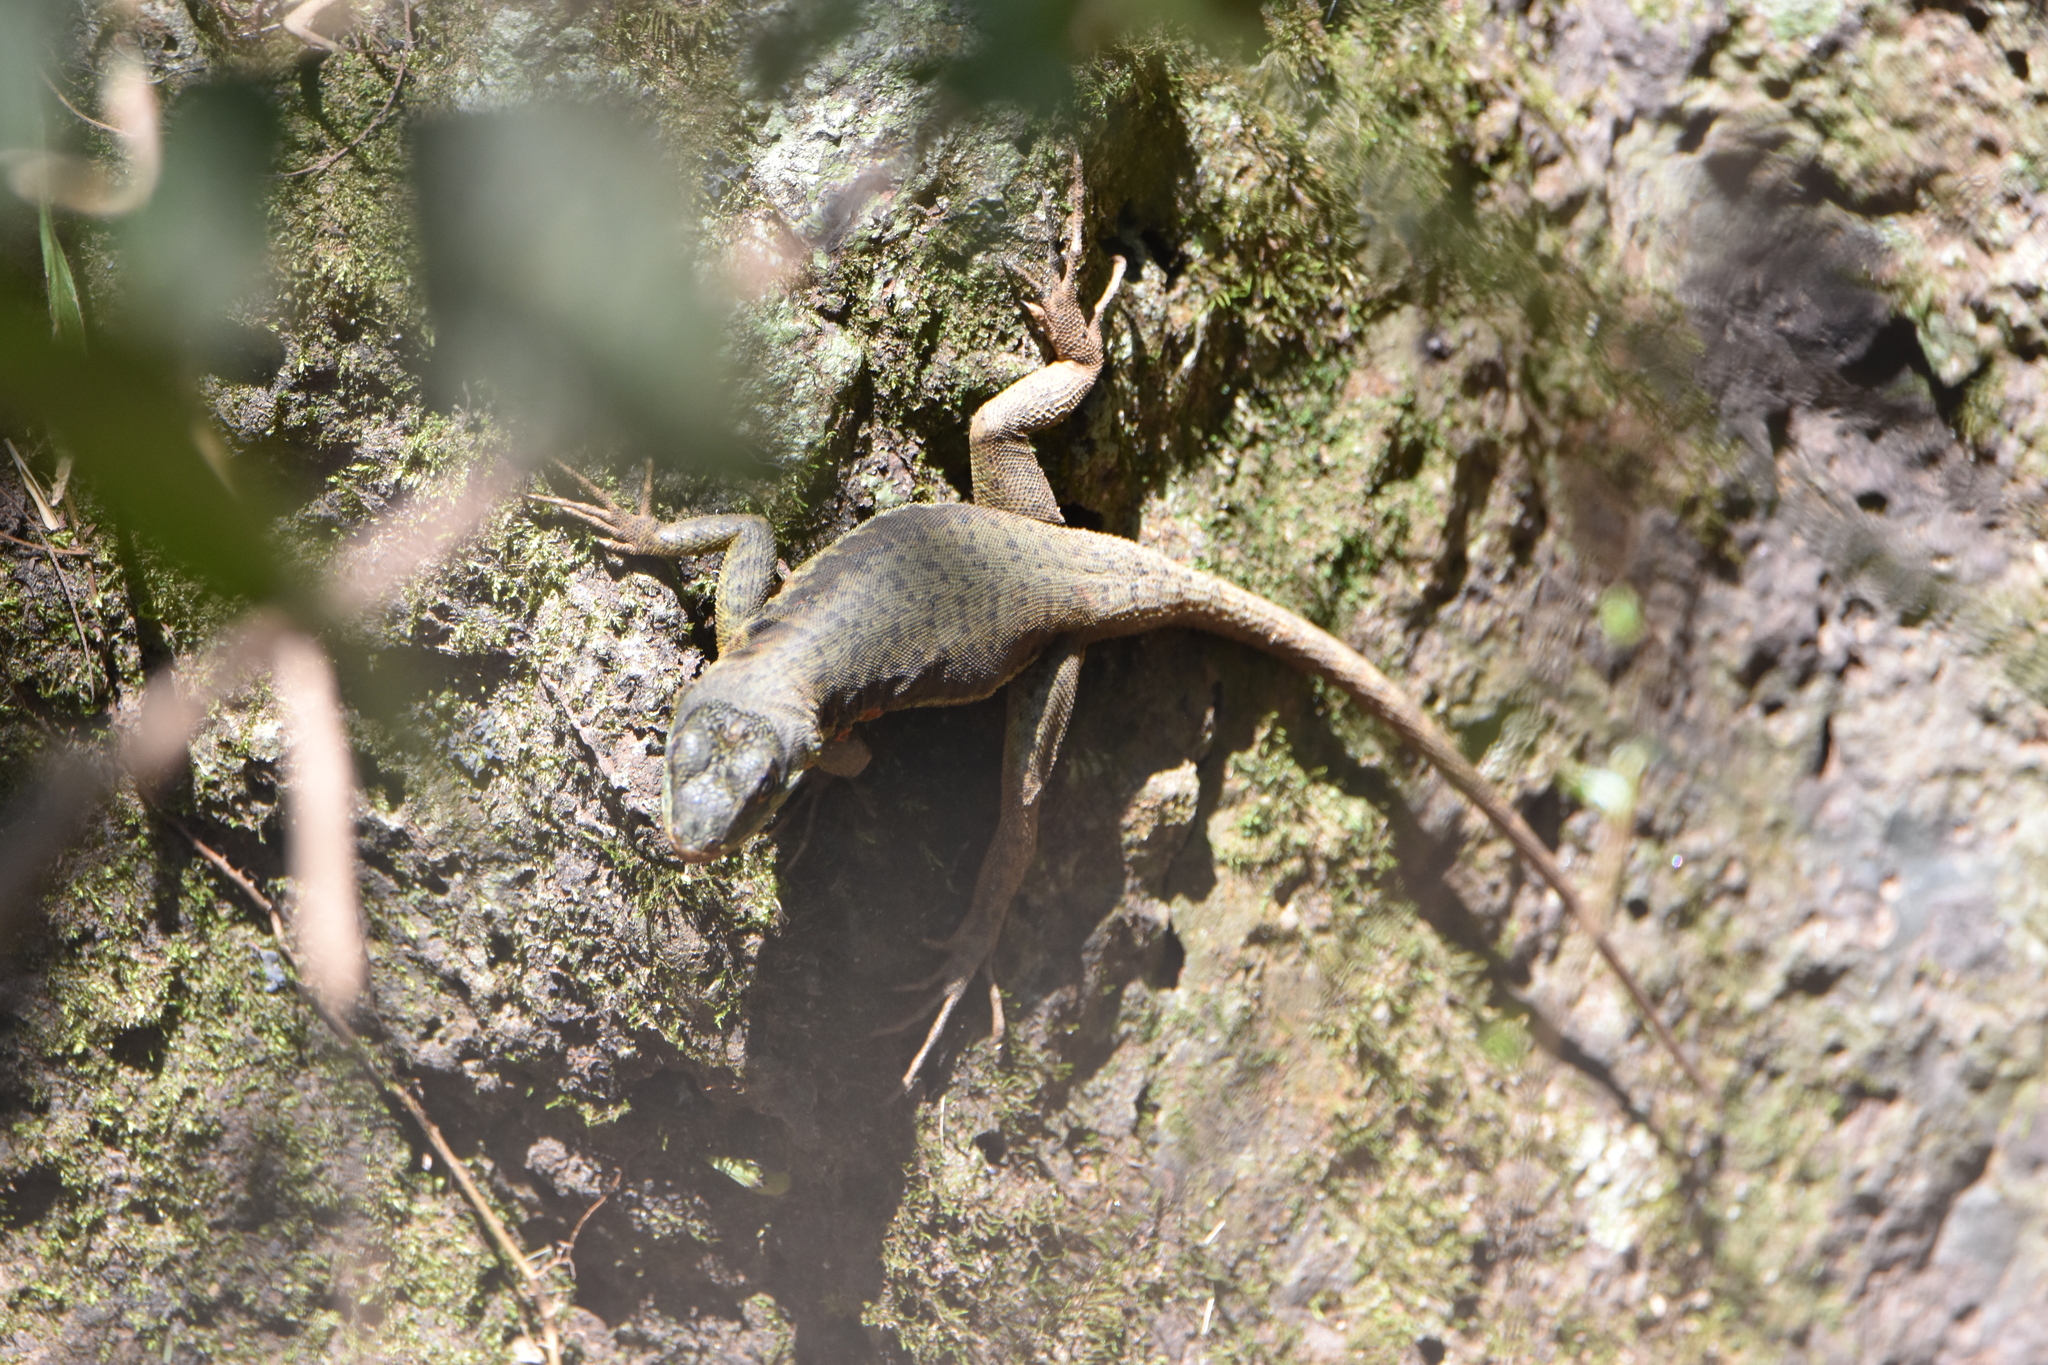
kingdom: Animalia
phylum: Chordata
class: Squamata
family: Tropiduridae
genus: Tropidurus
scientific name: Tropidurus catalanensis
